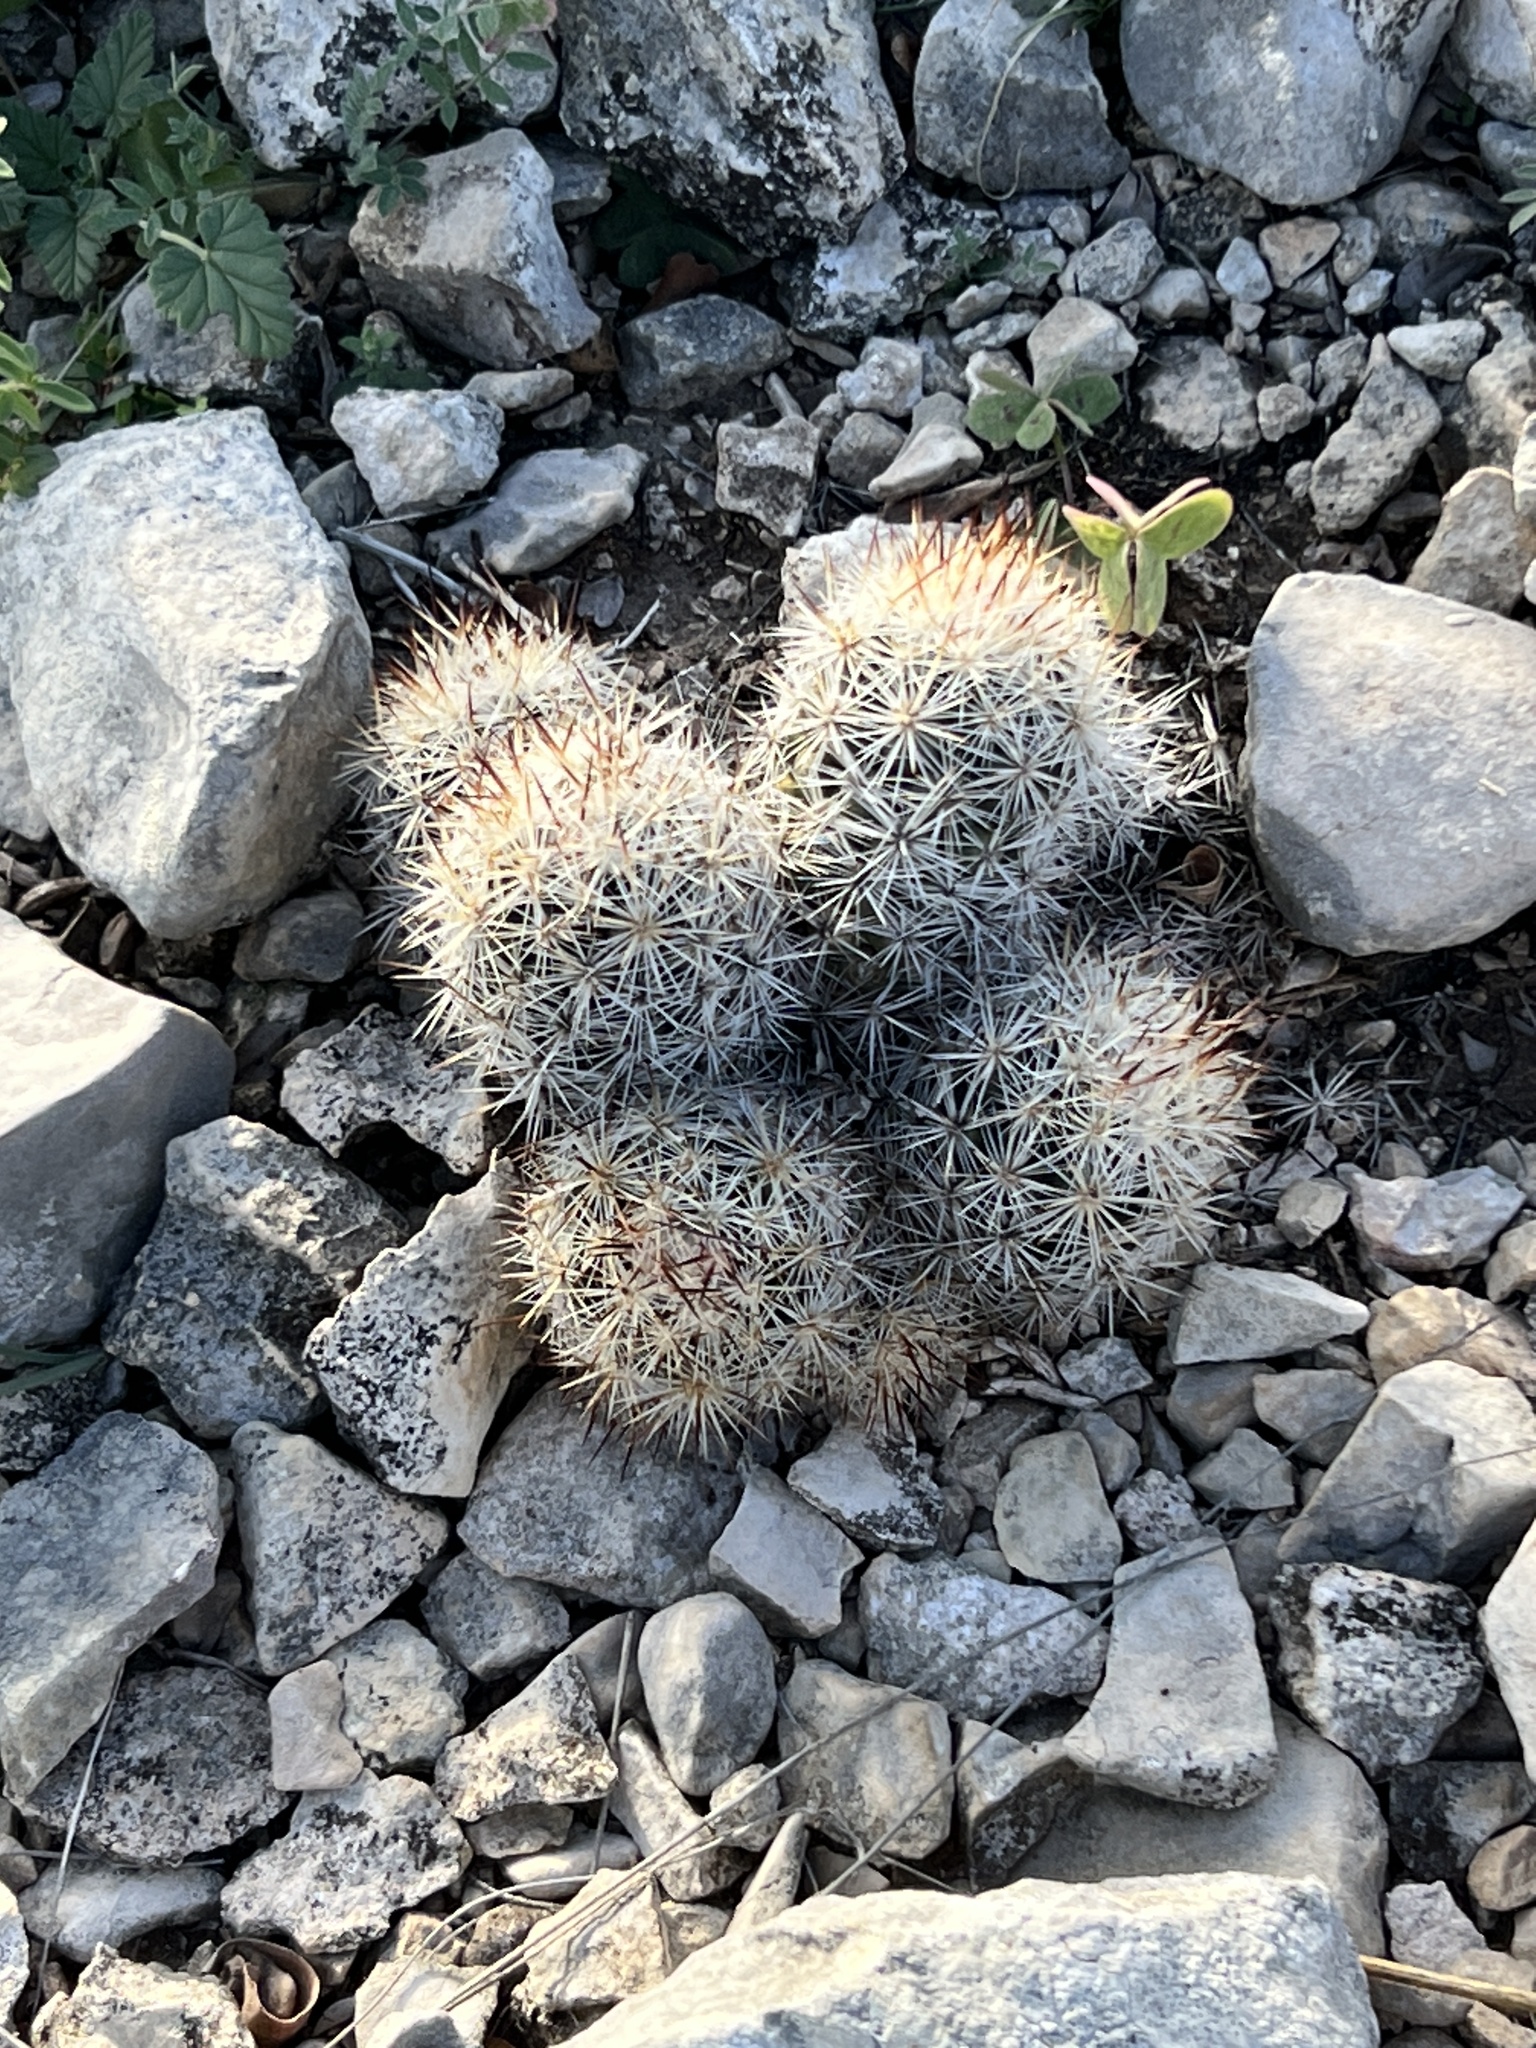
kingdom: Plantae
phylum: Tracheophyta
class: Magnoliopsida
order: Caryophyllales
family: Cactaceae
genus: Pelecyphora
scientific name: Pelecyphora emskoetteriana
